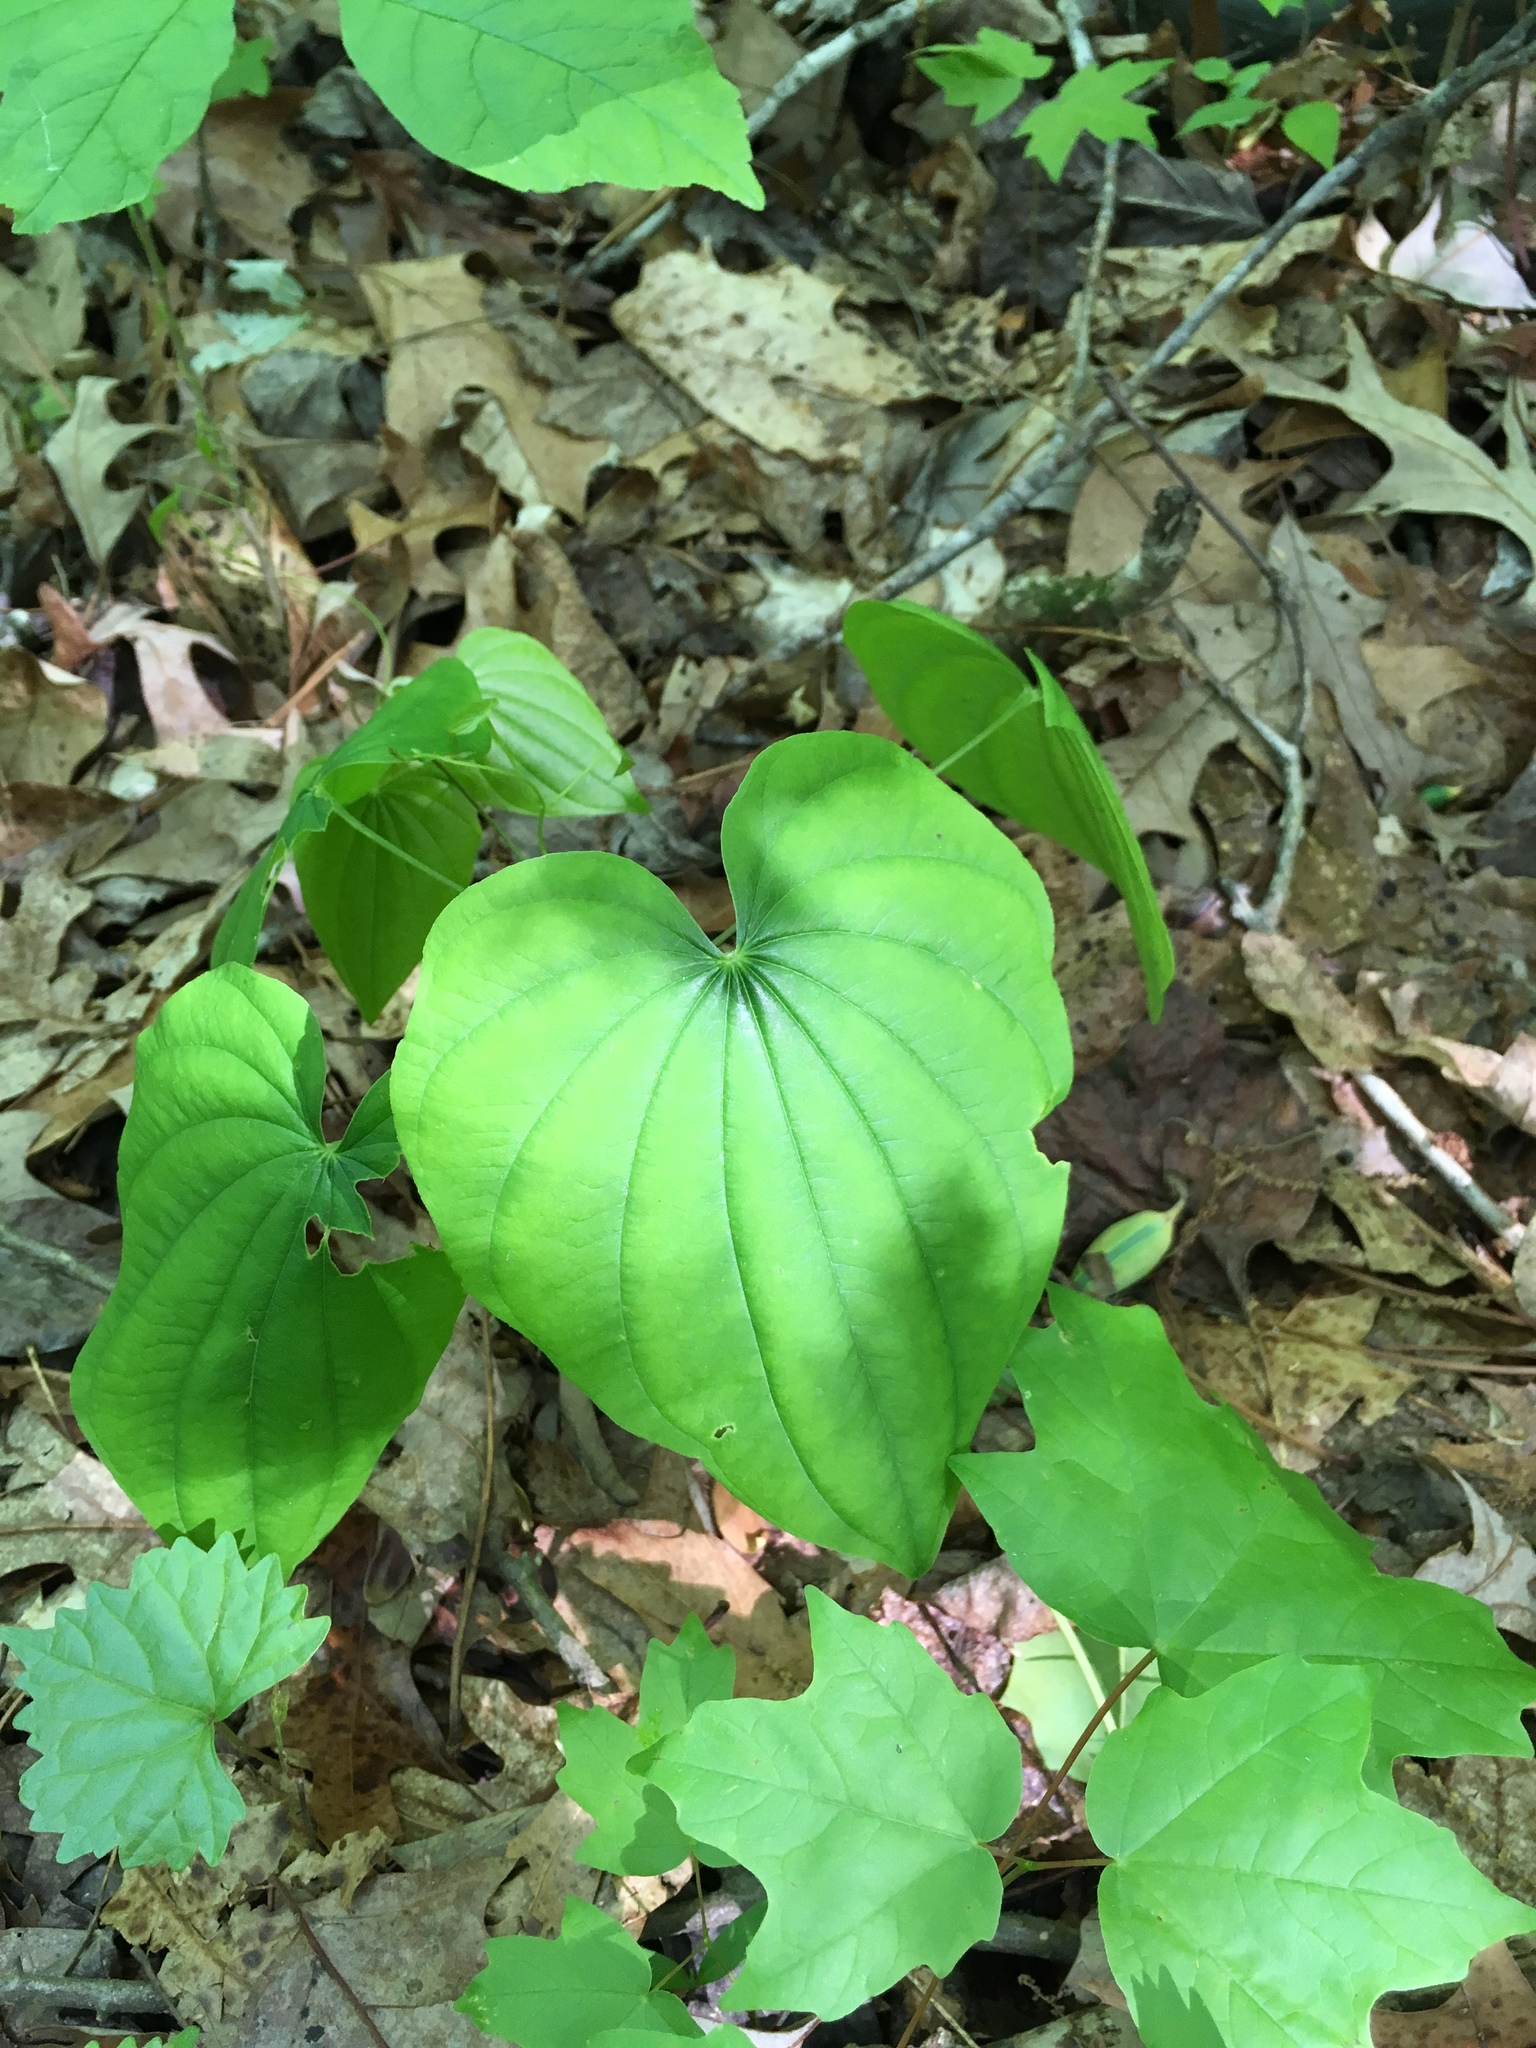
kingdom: Plantae
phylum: Tracheophyta
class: Liliopsida
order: Dioscoreales
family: Dioscoreaceae
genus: Dioscorea
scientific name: Dioscorea villosa
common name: Wild yam
